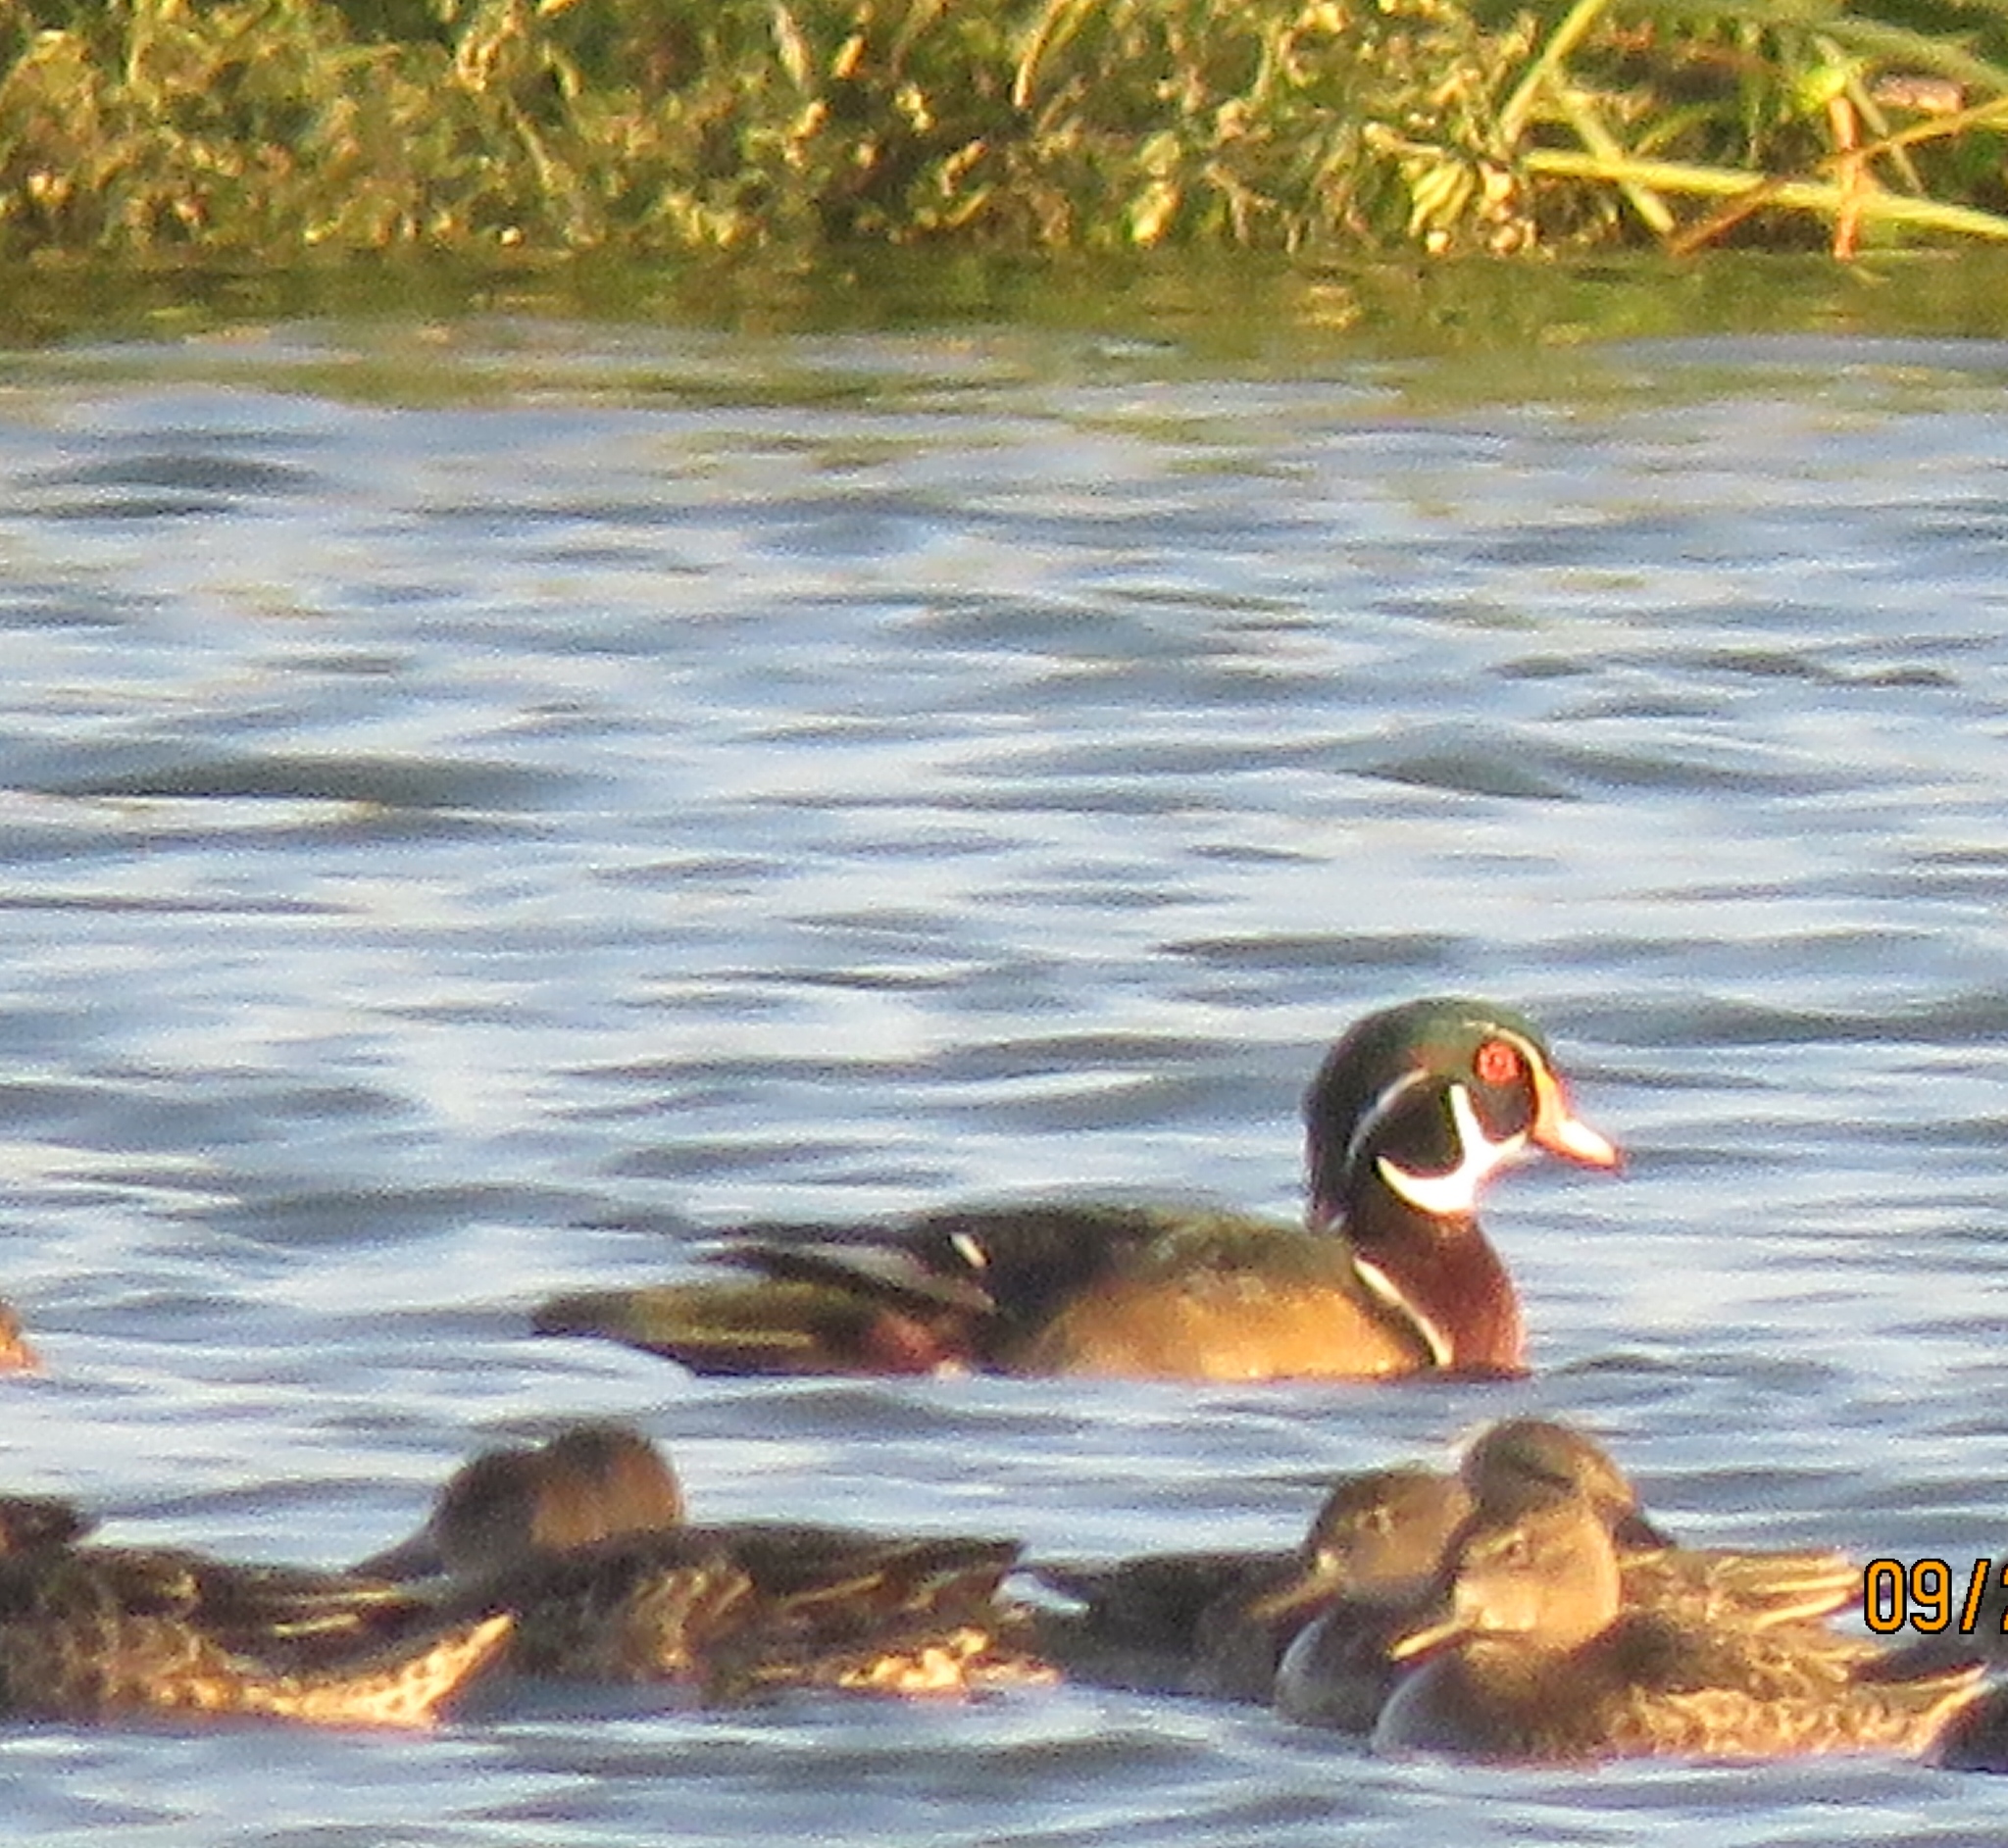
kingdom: Animalia
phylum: Chordata
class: Aves
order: Anseriformes
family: Anatidae
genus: Aix
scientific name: Aix sponsa
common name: Wood duck
